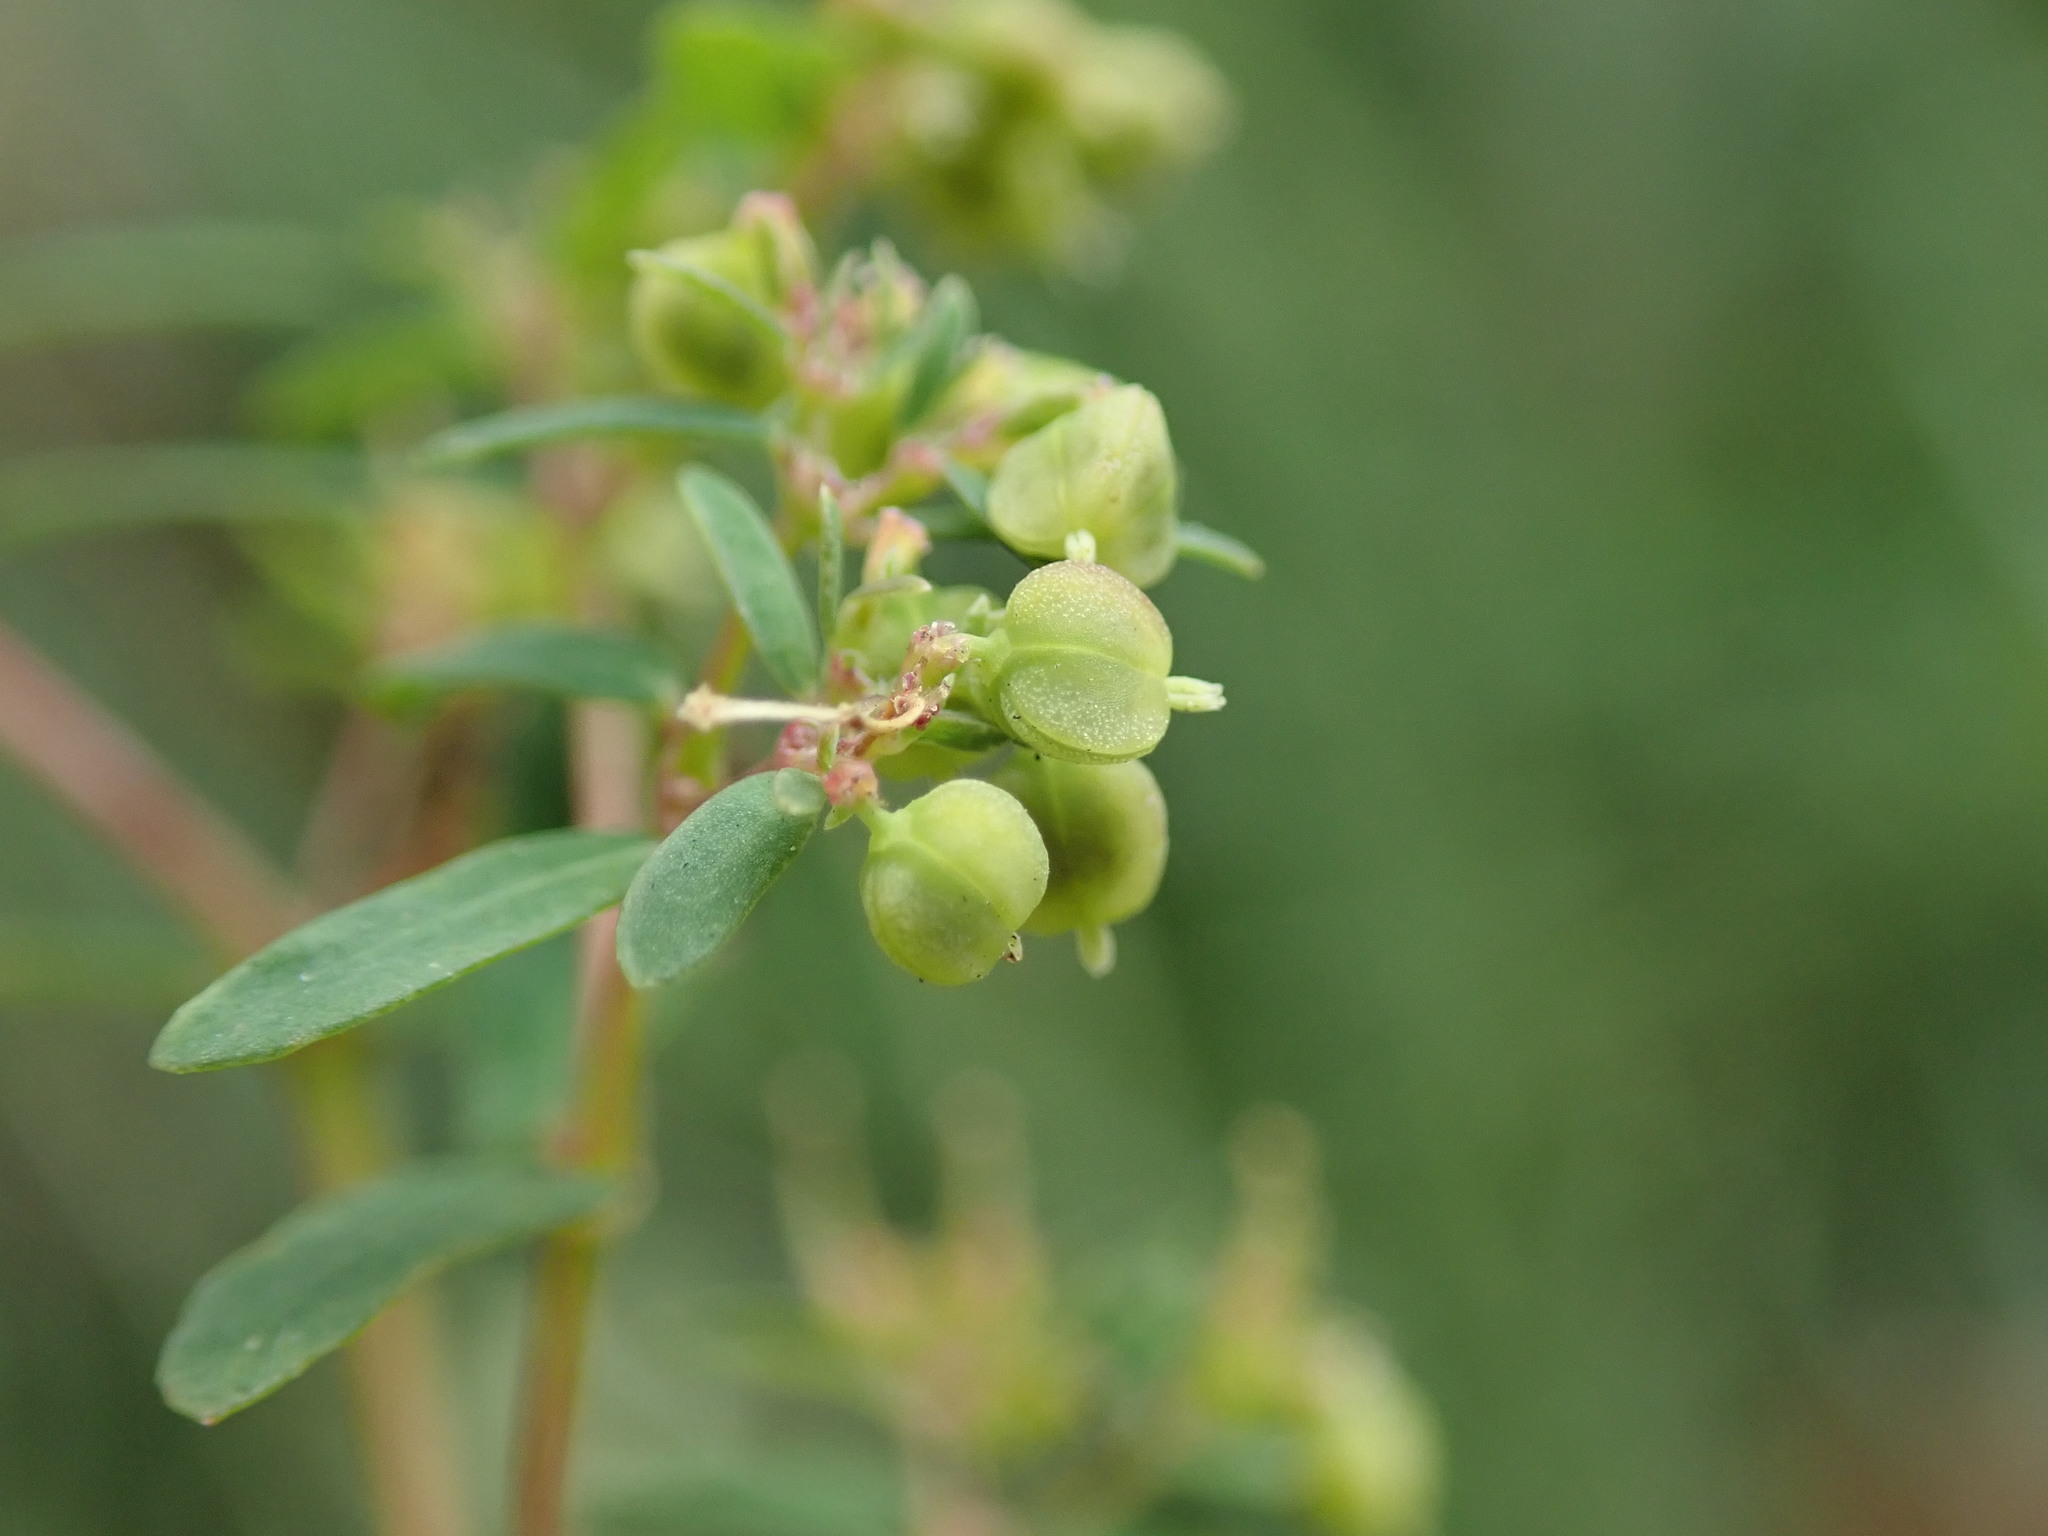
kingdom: Plantae
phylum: Tracheophyta
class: Magnoliopsida
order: Malpighiales
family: Euphorbiaceae
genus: Euphorbia
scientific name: Euphorbia hyssopifolia
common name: Hyssopleaf sandmat
